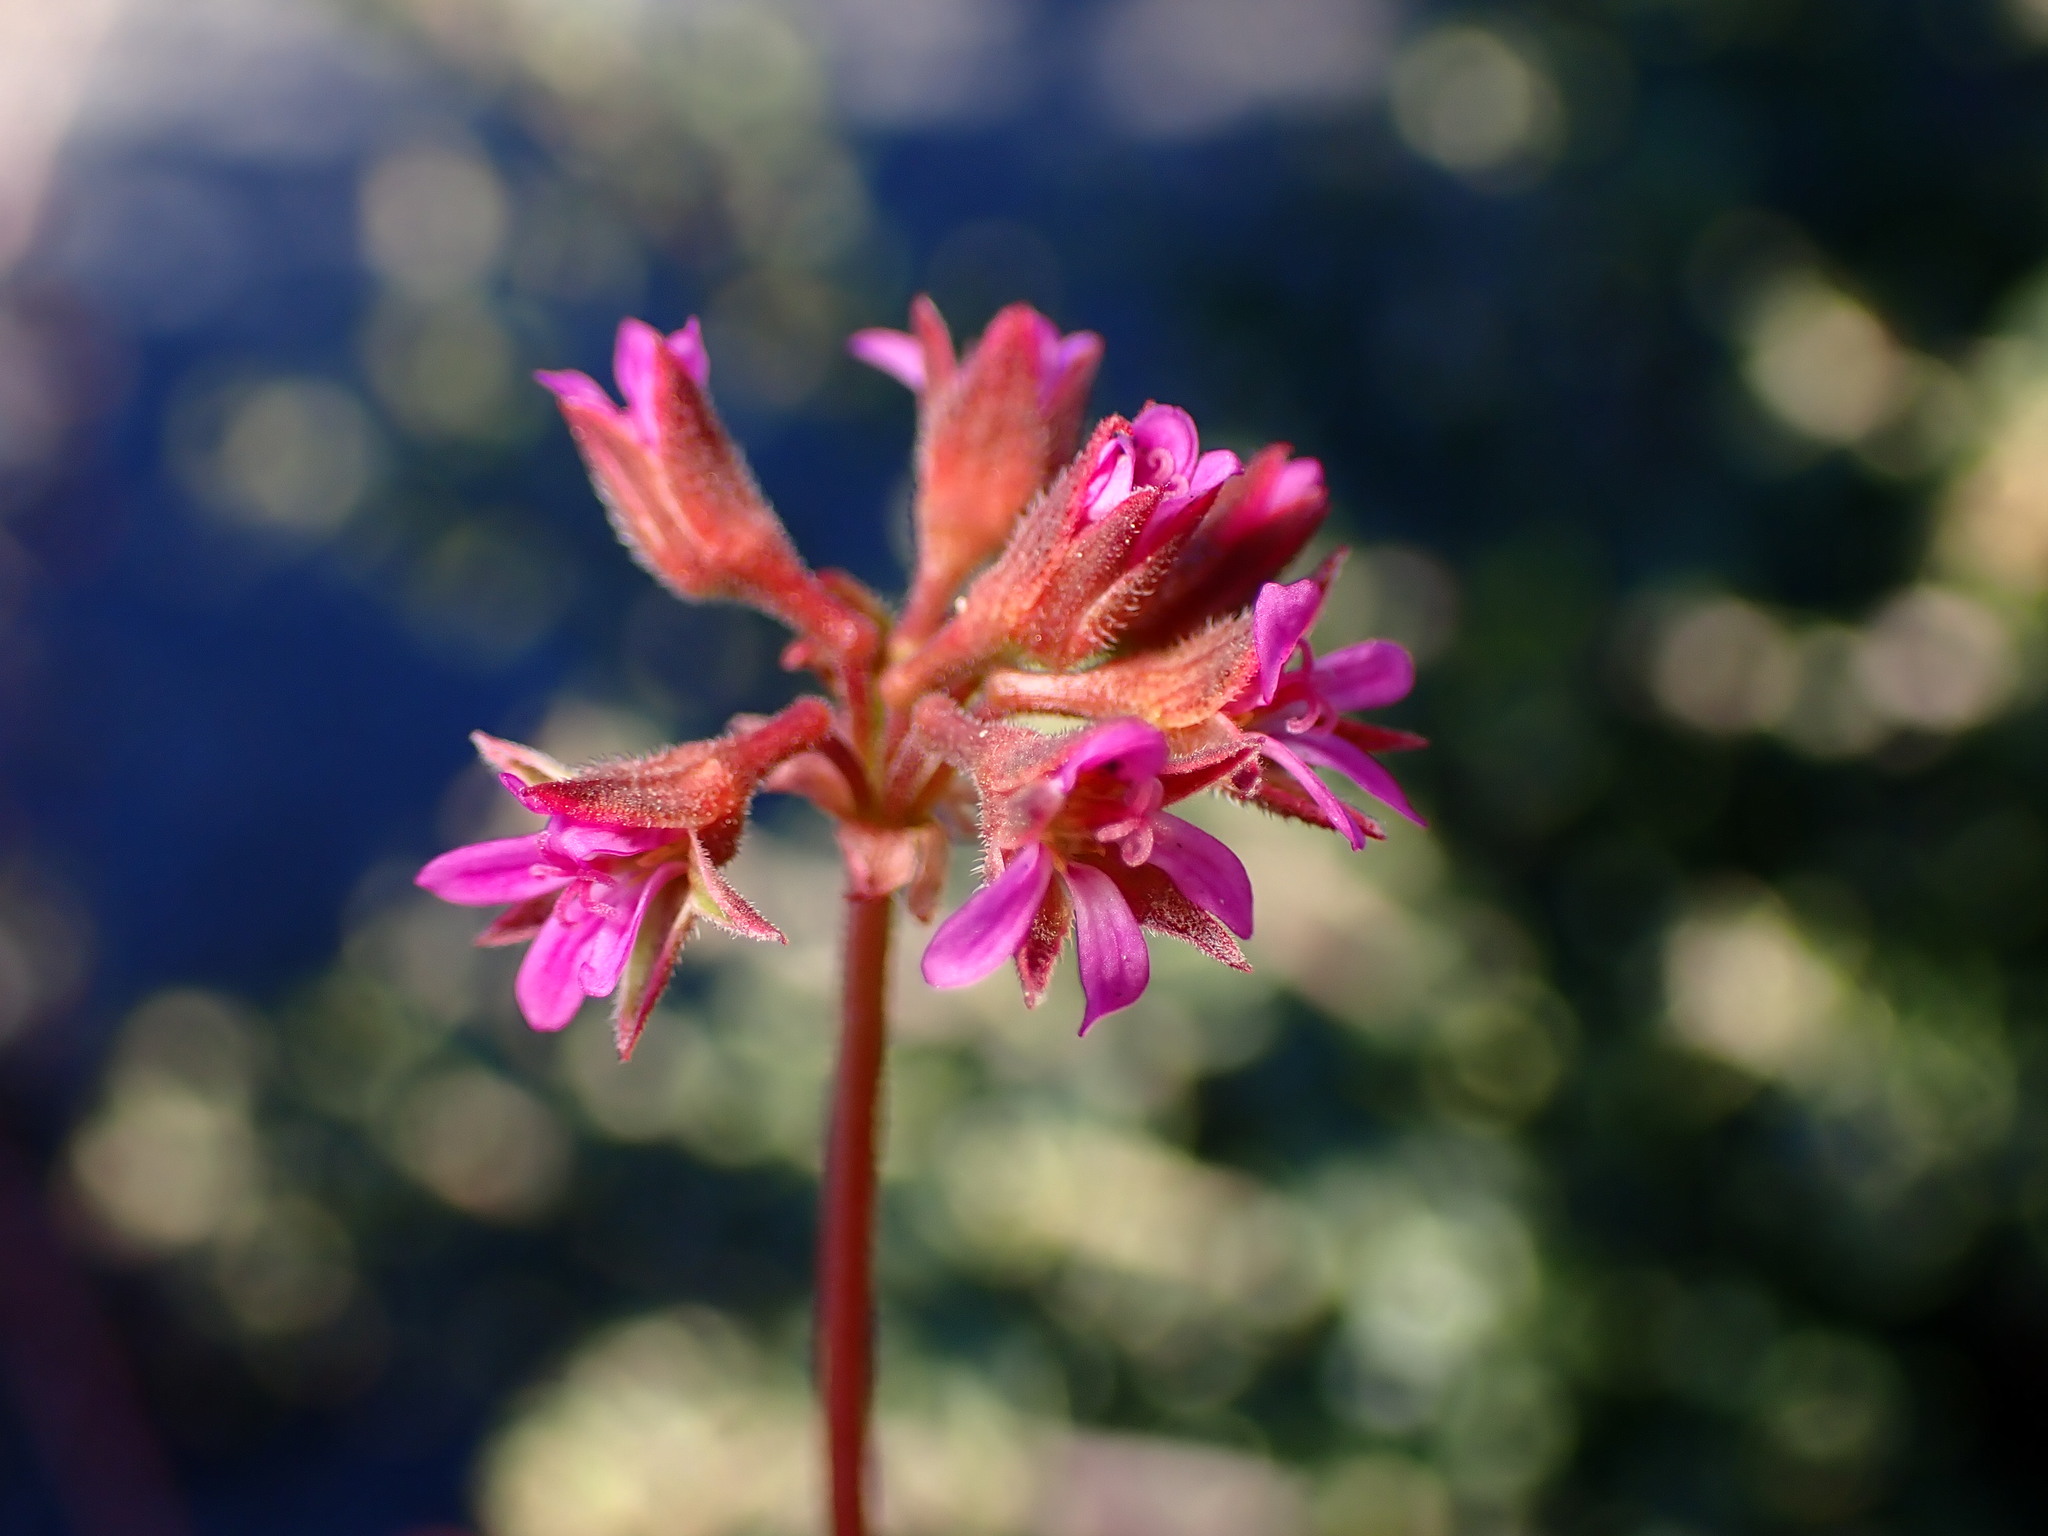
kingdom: Plantae
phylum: Tracheophyta
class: Magnoliopsida
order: Geraniales
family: Geraniaceae
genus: Pelargonium
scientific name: Pelargonium grossularioides
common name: Gooseberry geranium
